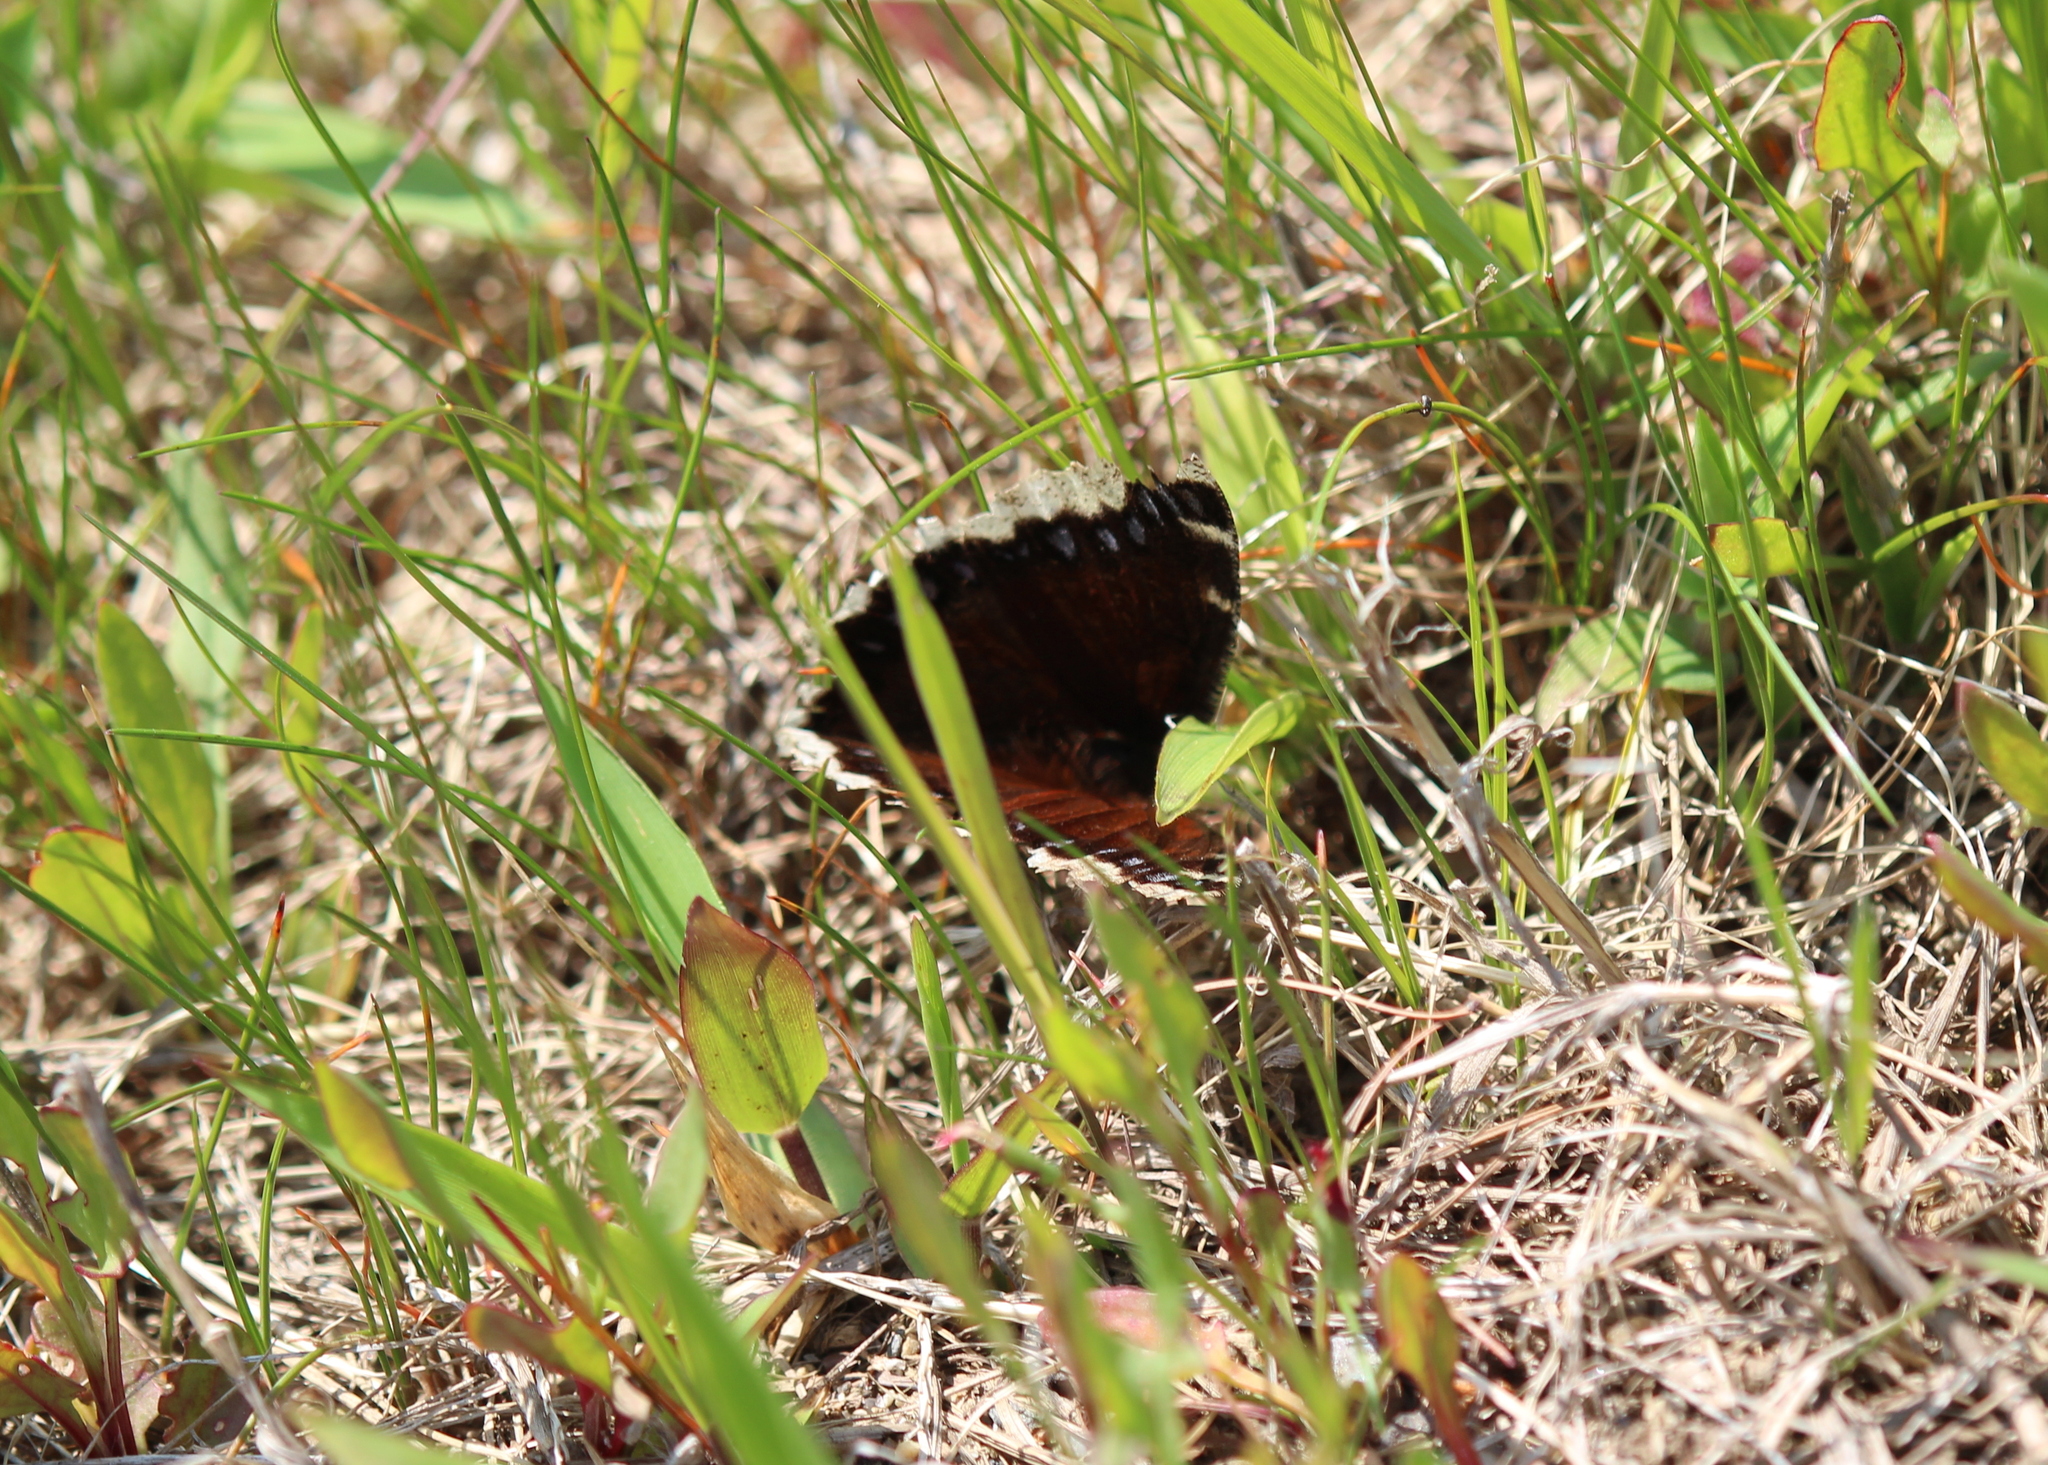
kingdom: Animalia
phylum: Arthropoda
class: Insecta
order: Lepidoptera
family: Nymphalidae
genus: Nymphalis
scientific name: Nymphalis antiopa
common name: Camberwell beauty
